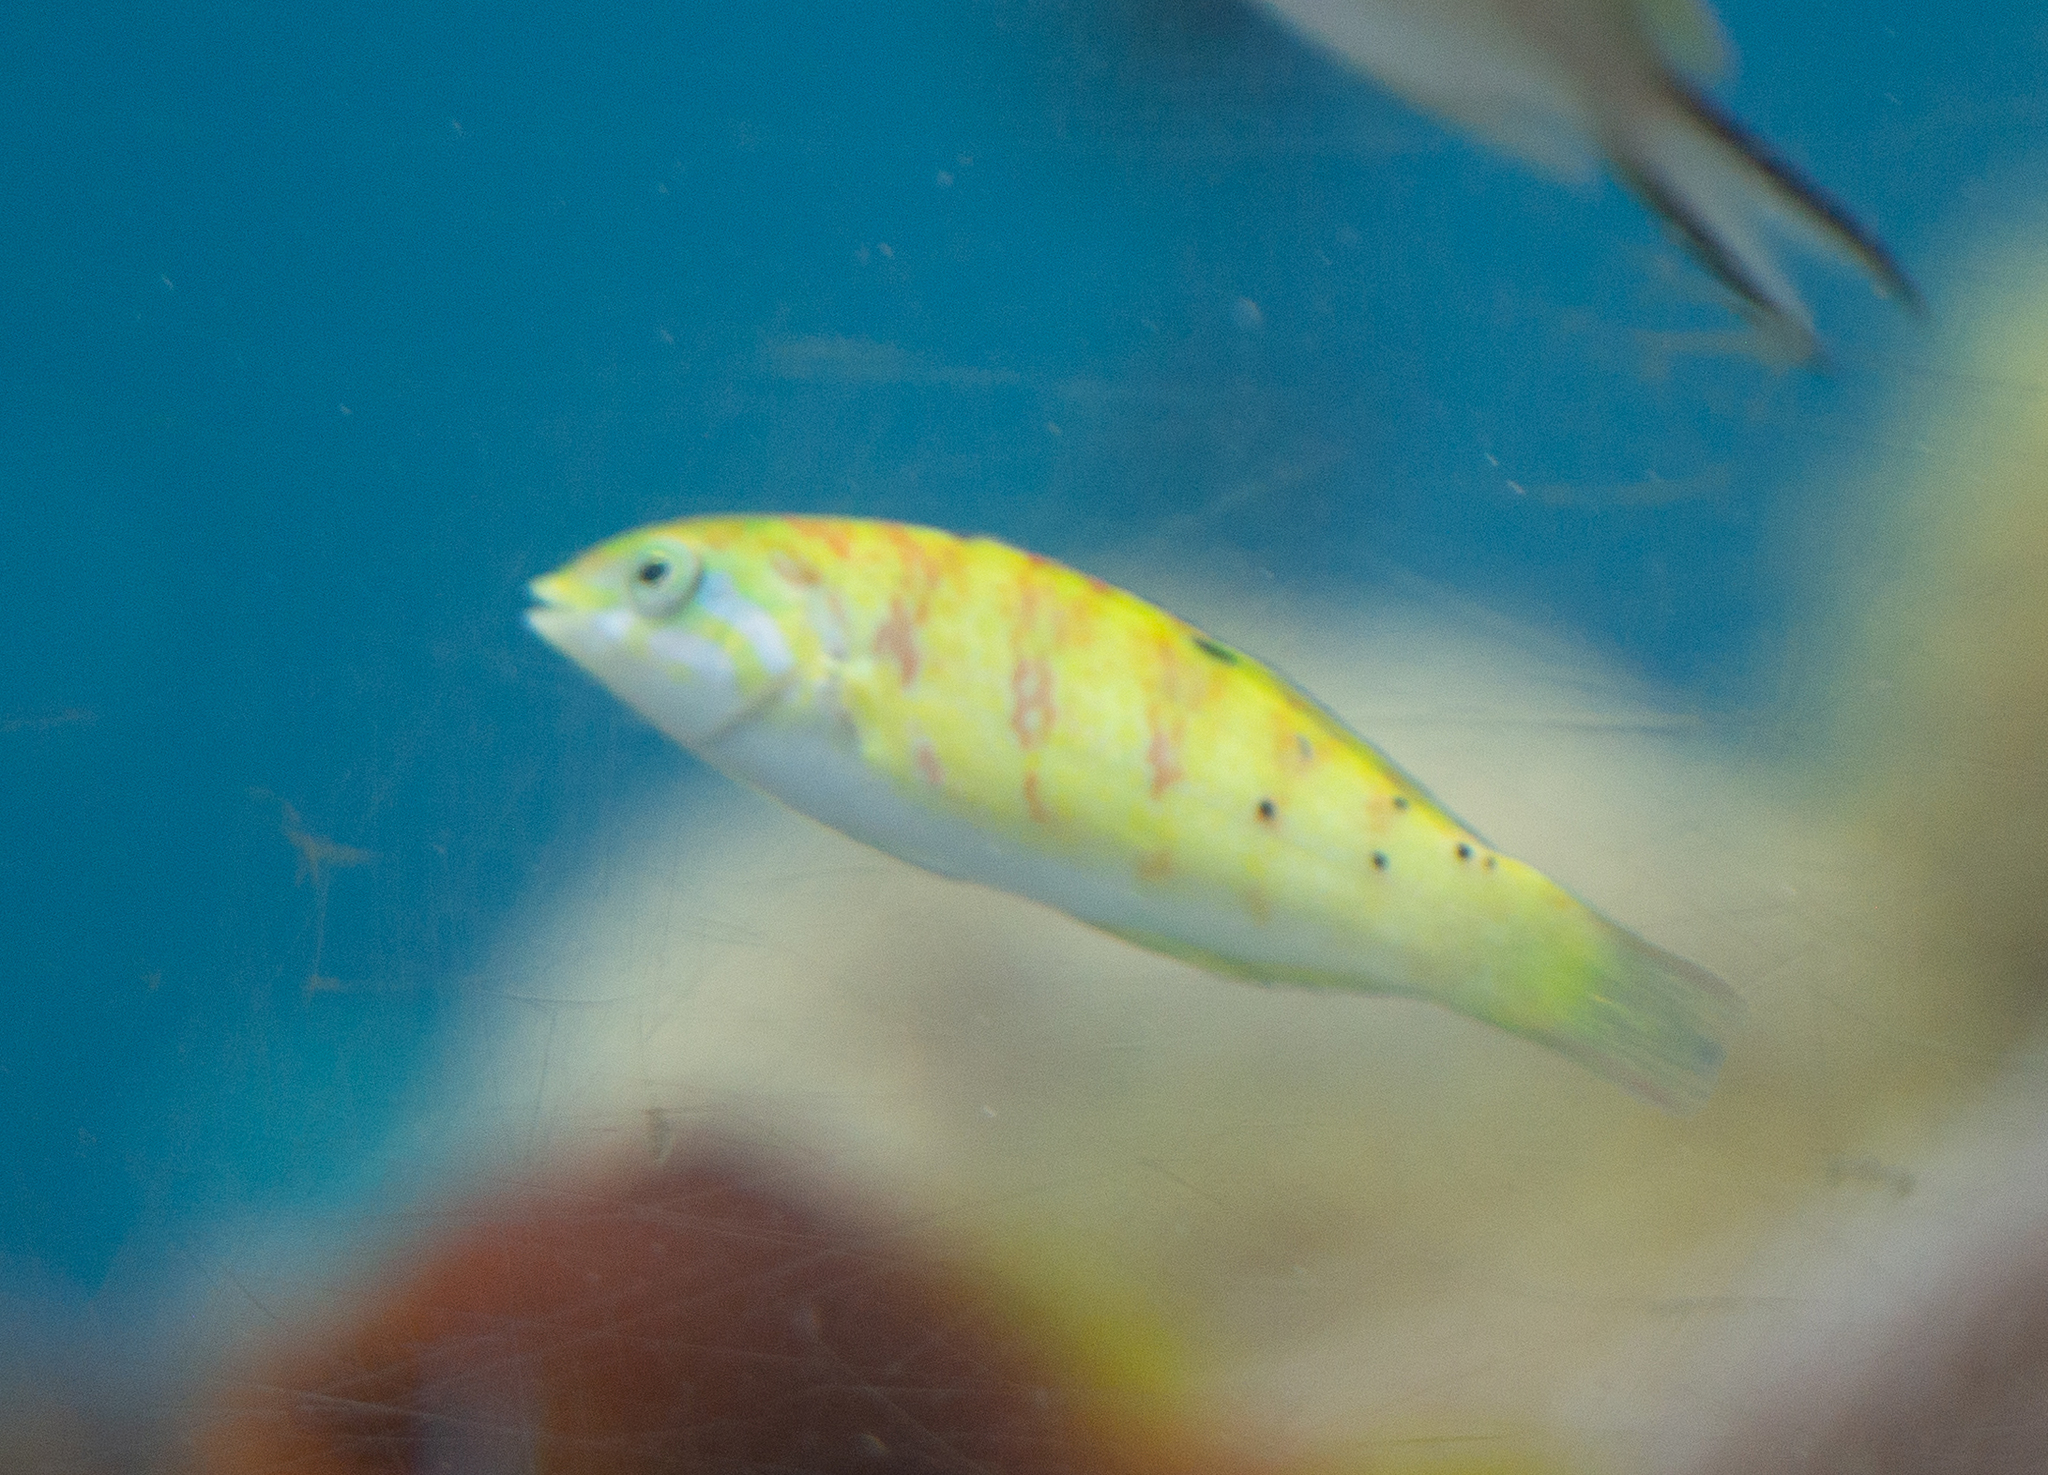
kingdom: Animalia
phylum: Chordata
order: Perciformes
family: Labridae
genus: Thalassoma
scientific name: Thalassoma hardwicke
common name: Sixbar wrasse
